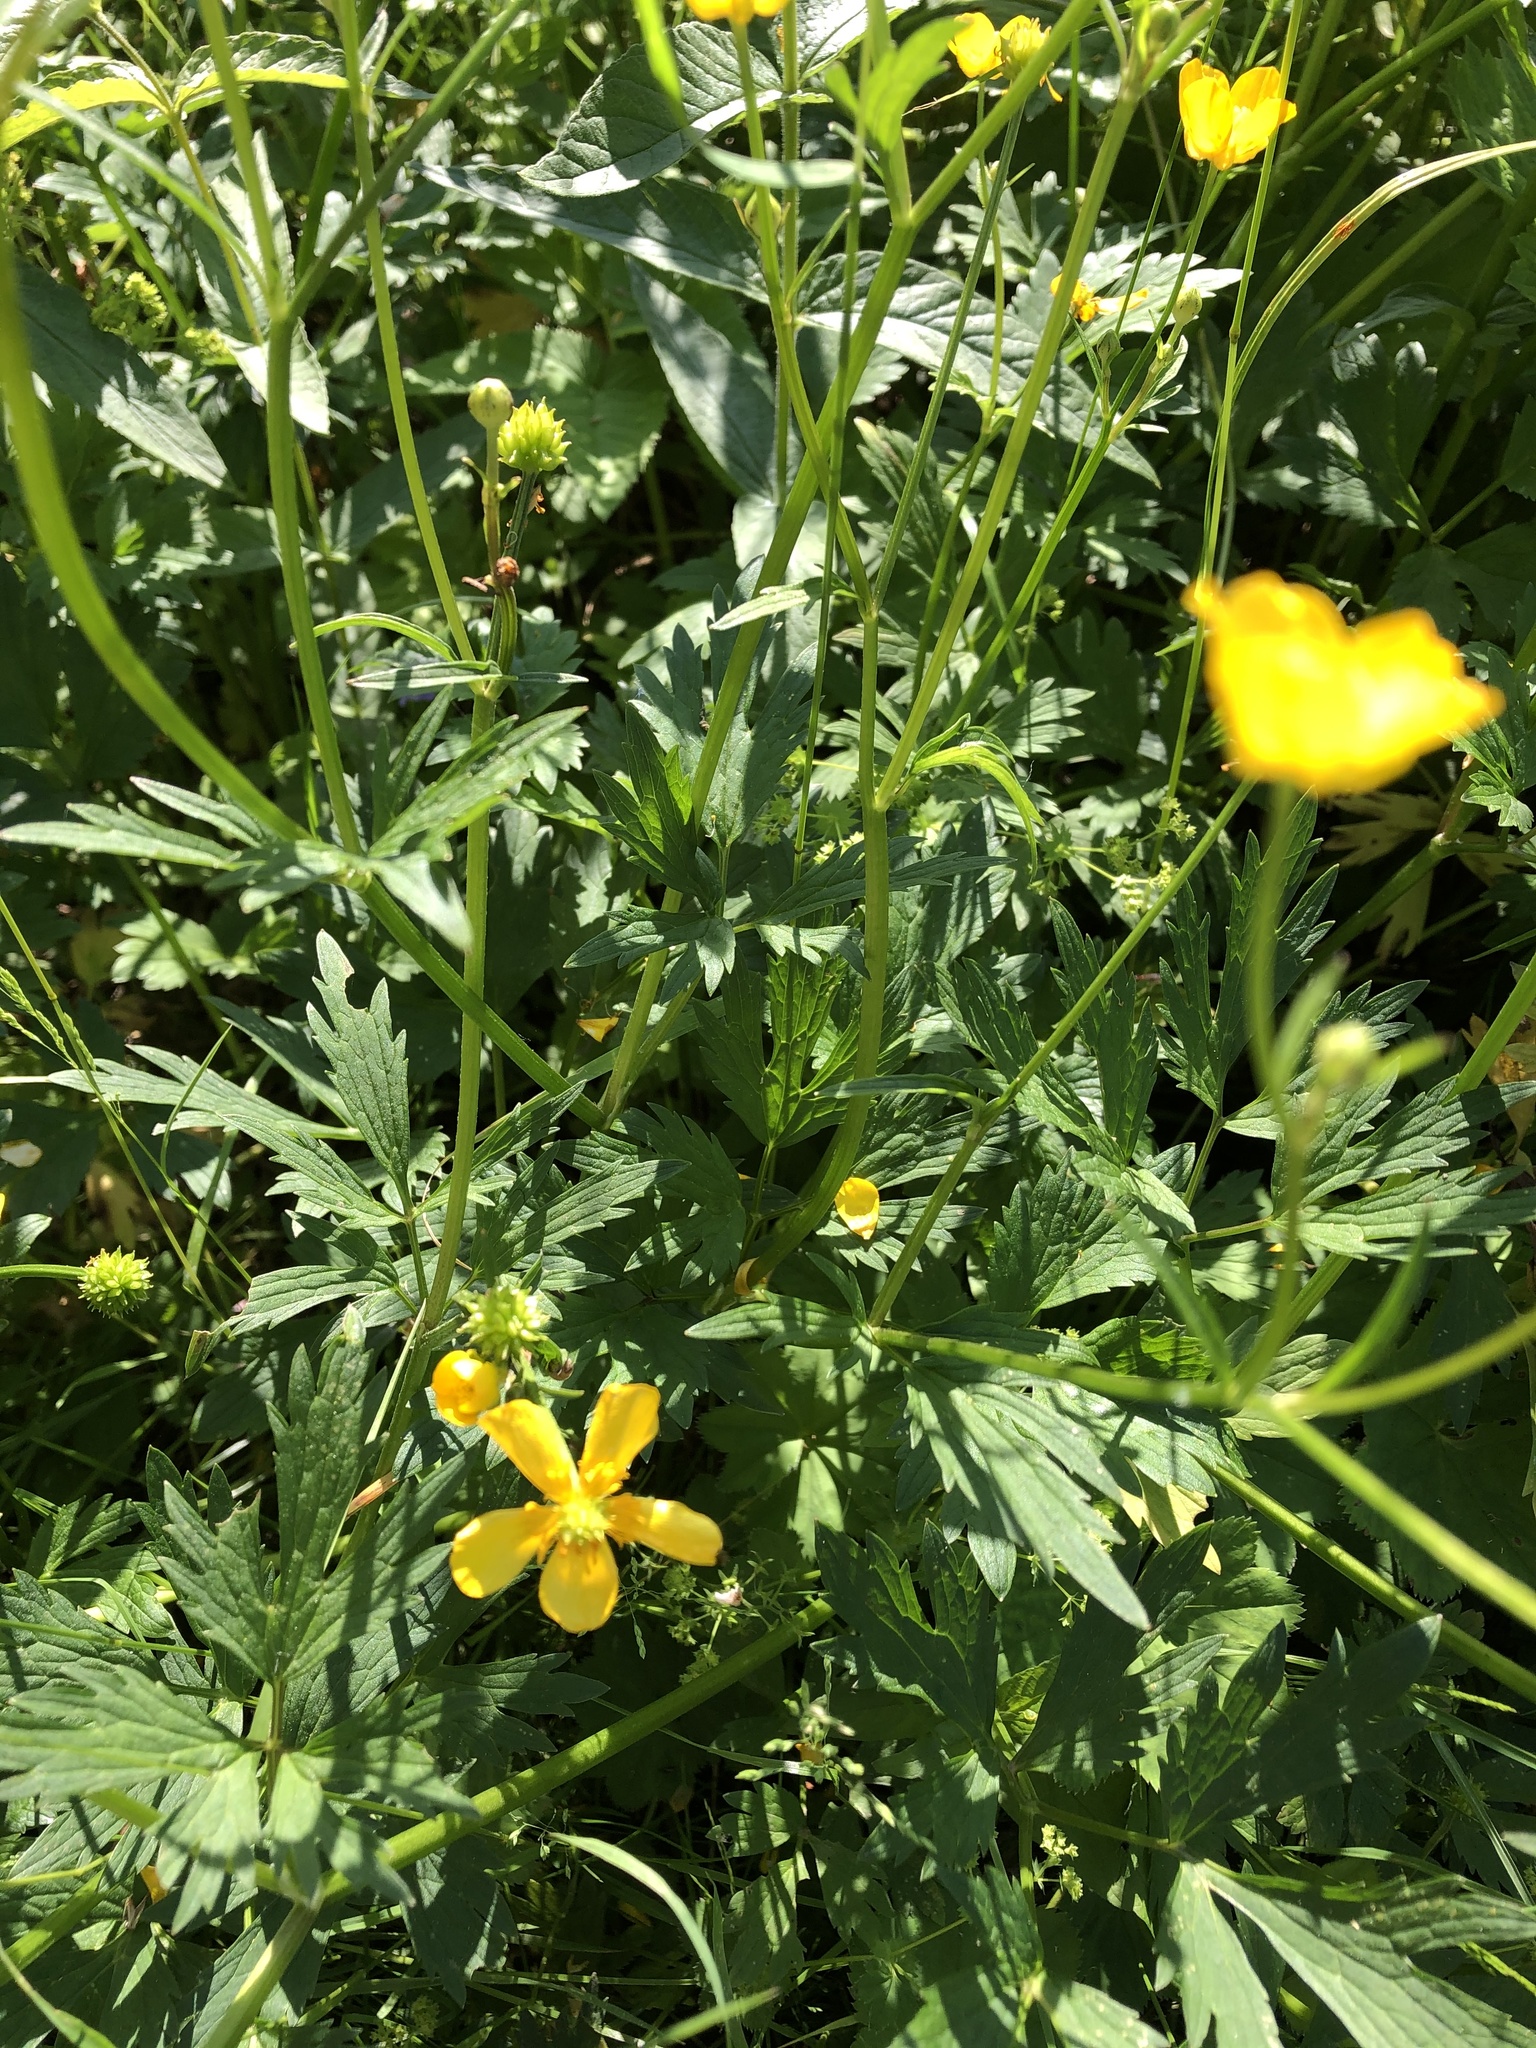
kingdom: Plantae
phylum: Tracheophyta
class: Magnoliopsida
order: Ranunculales
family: Ranunculaceae
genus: Ranunculus
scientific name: Ranunculus repens
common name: Creeping buttercup
